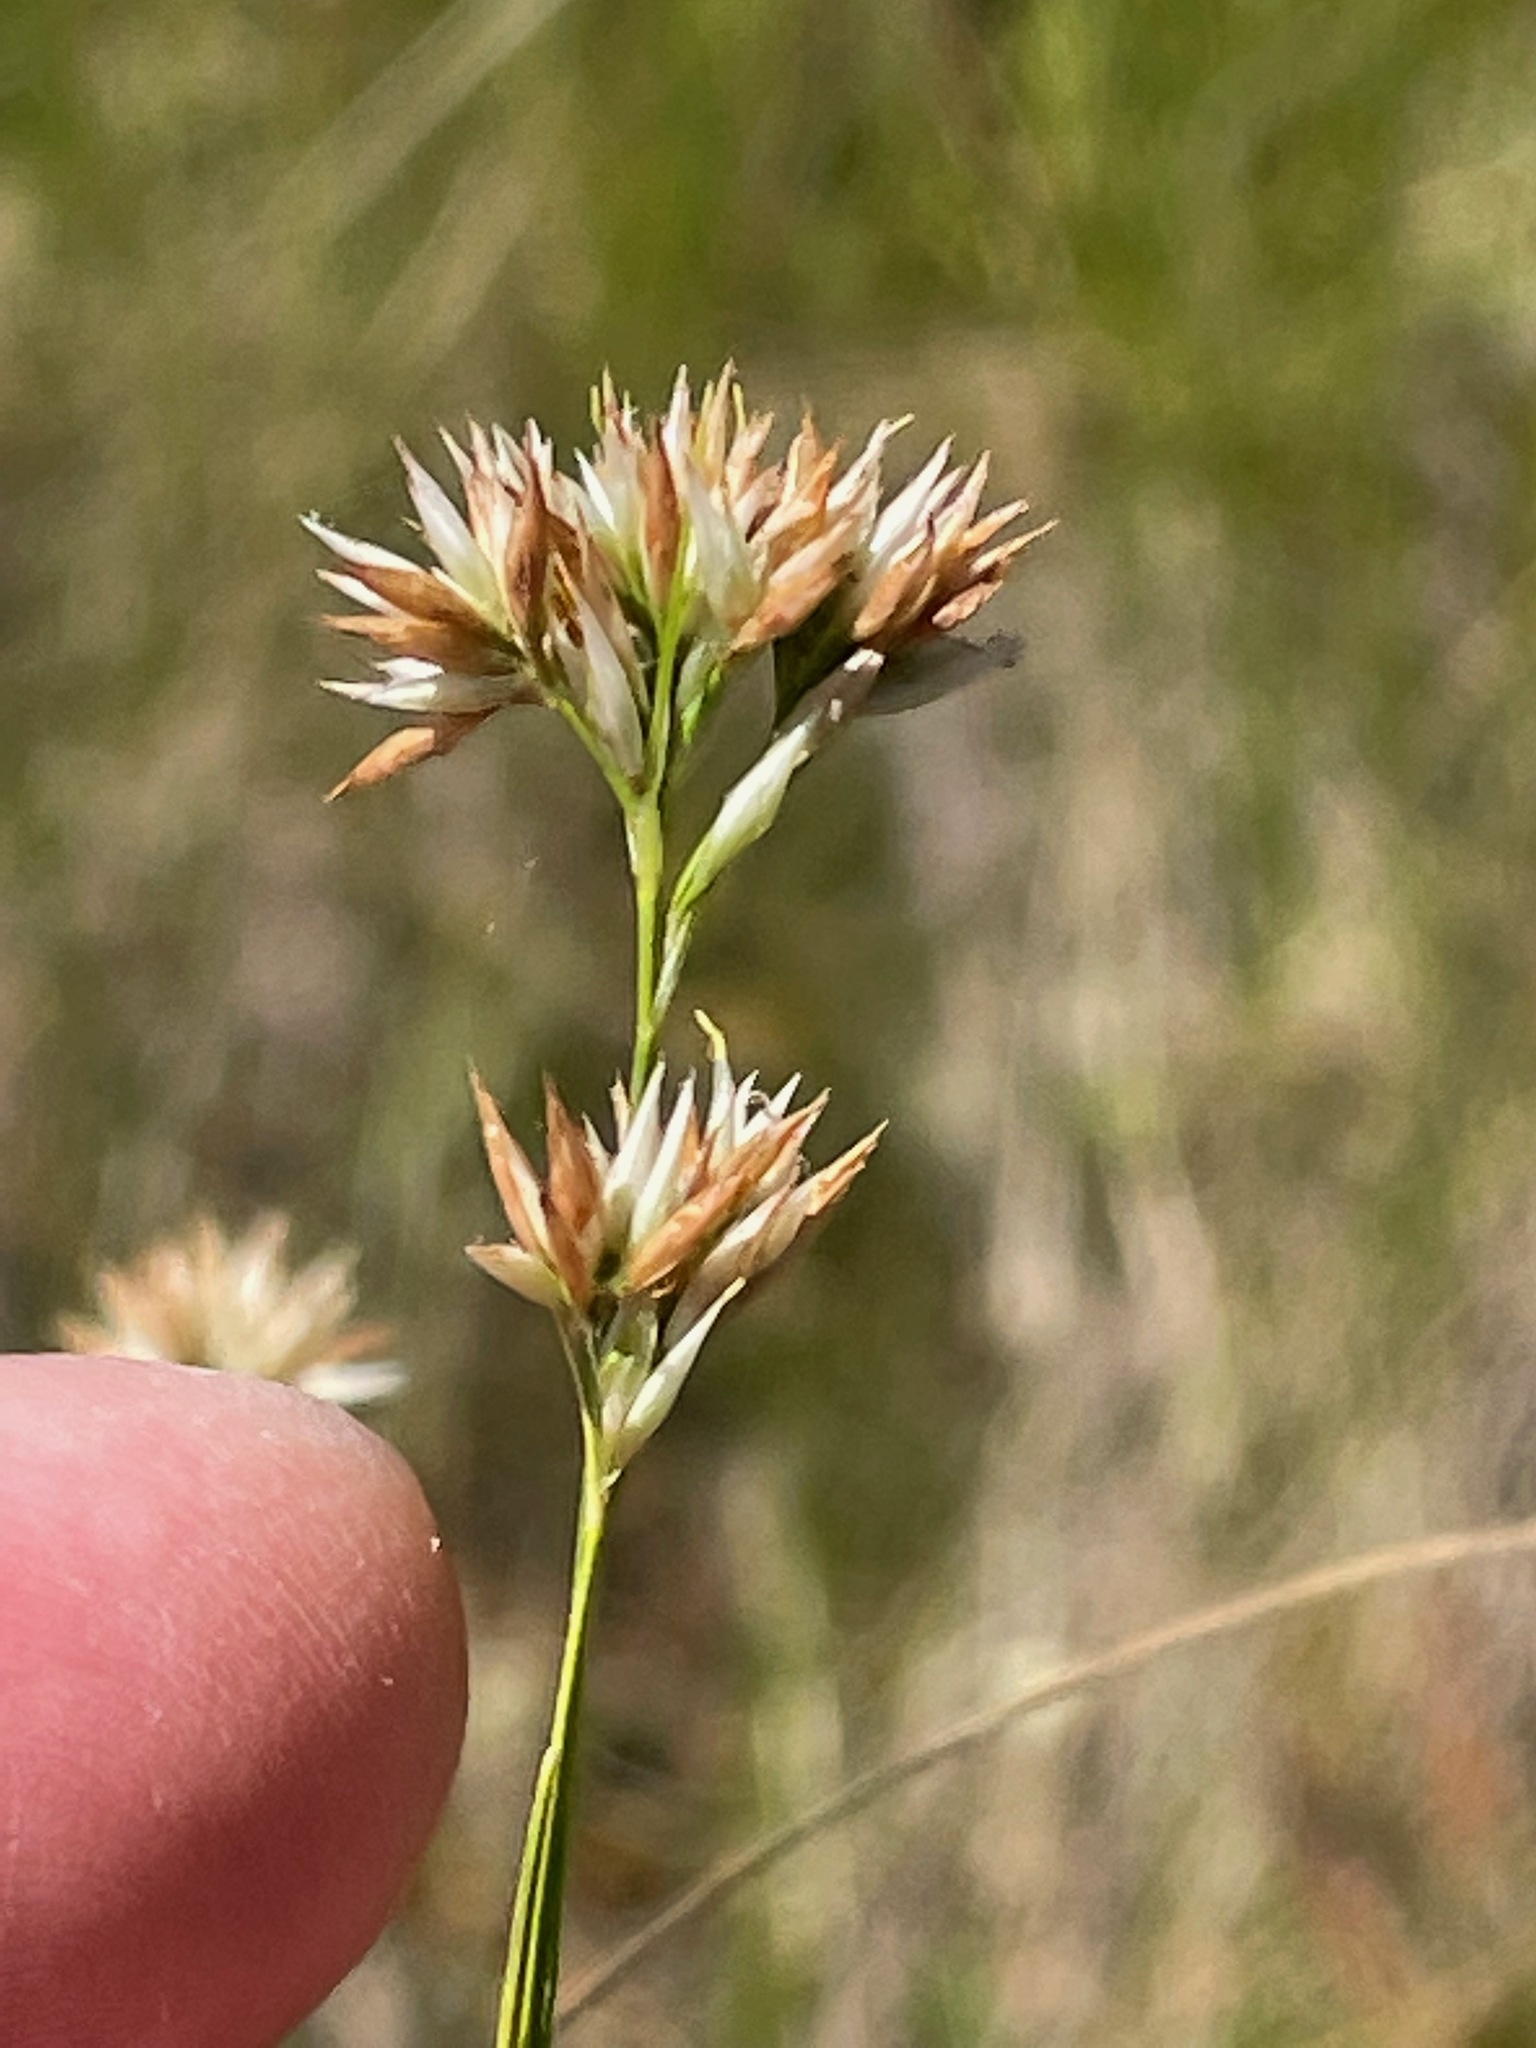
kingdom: Plantae
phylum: Tracheophyta
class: Liliopsida
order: Poales
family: Cyperaceae
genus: Rhynchospora
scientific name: Rhynchospora alba
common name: White beak-sedge
